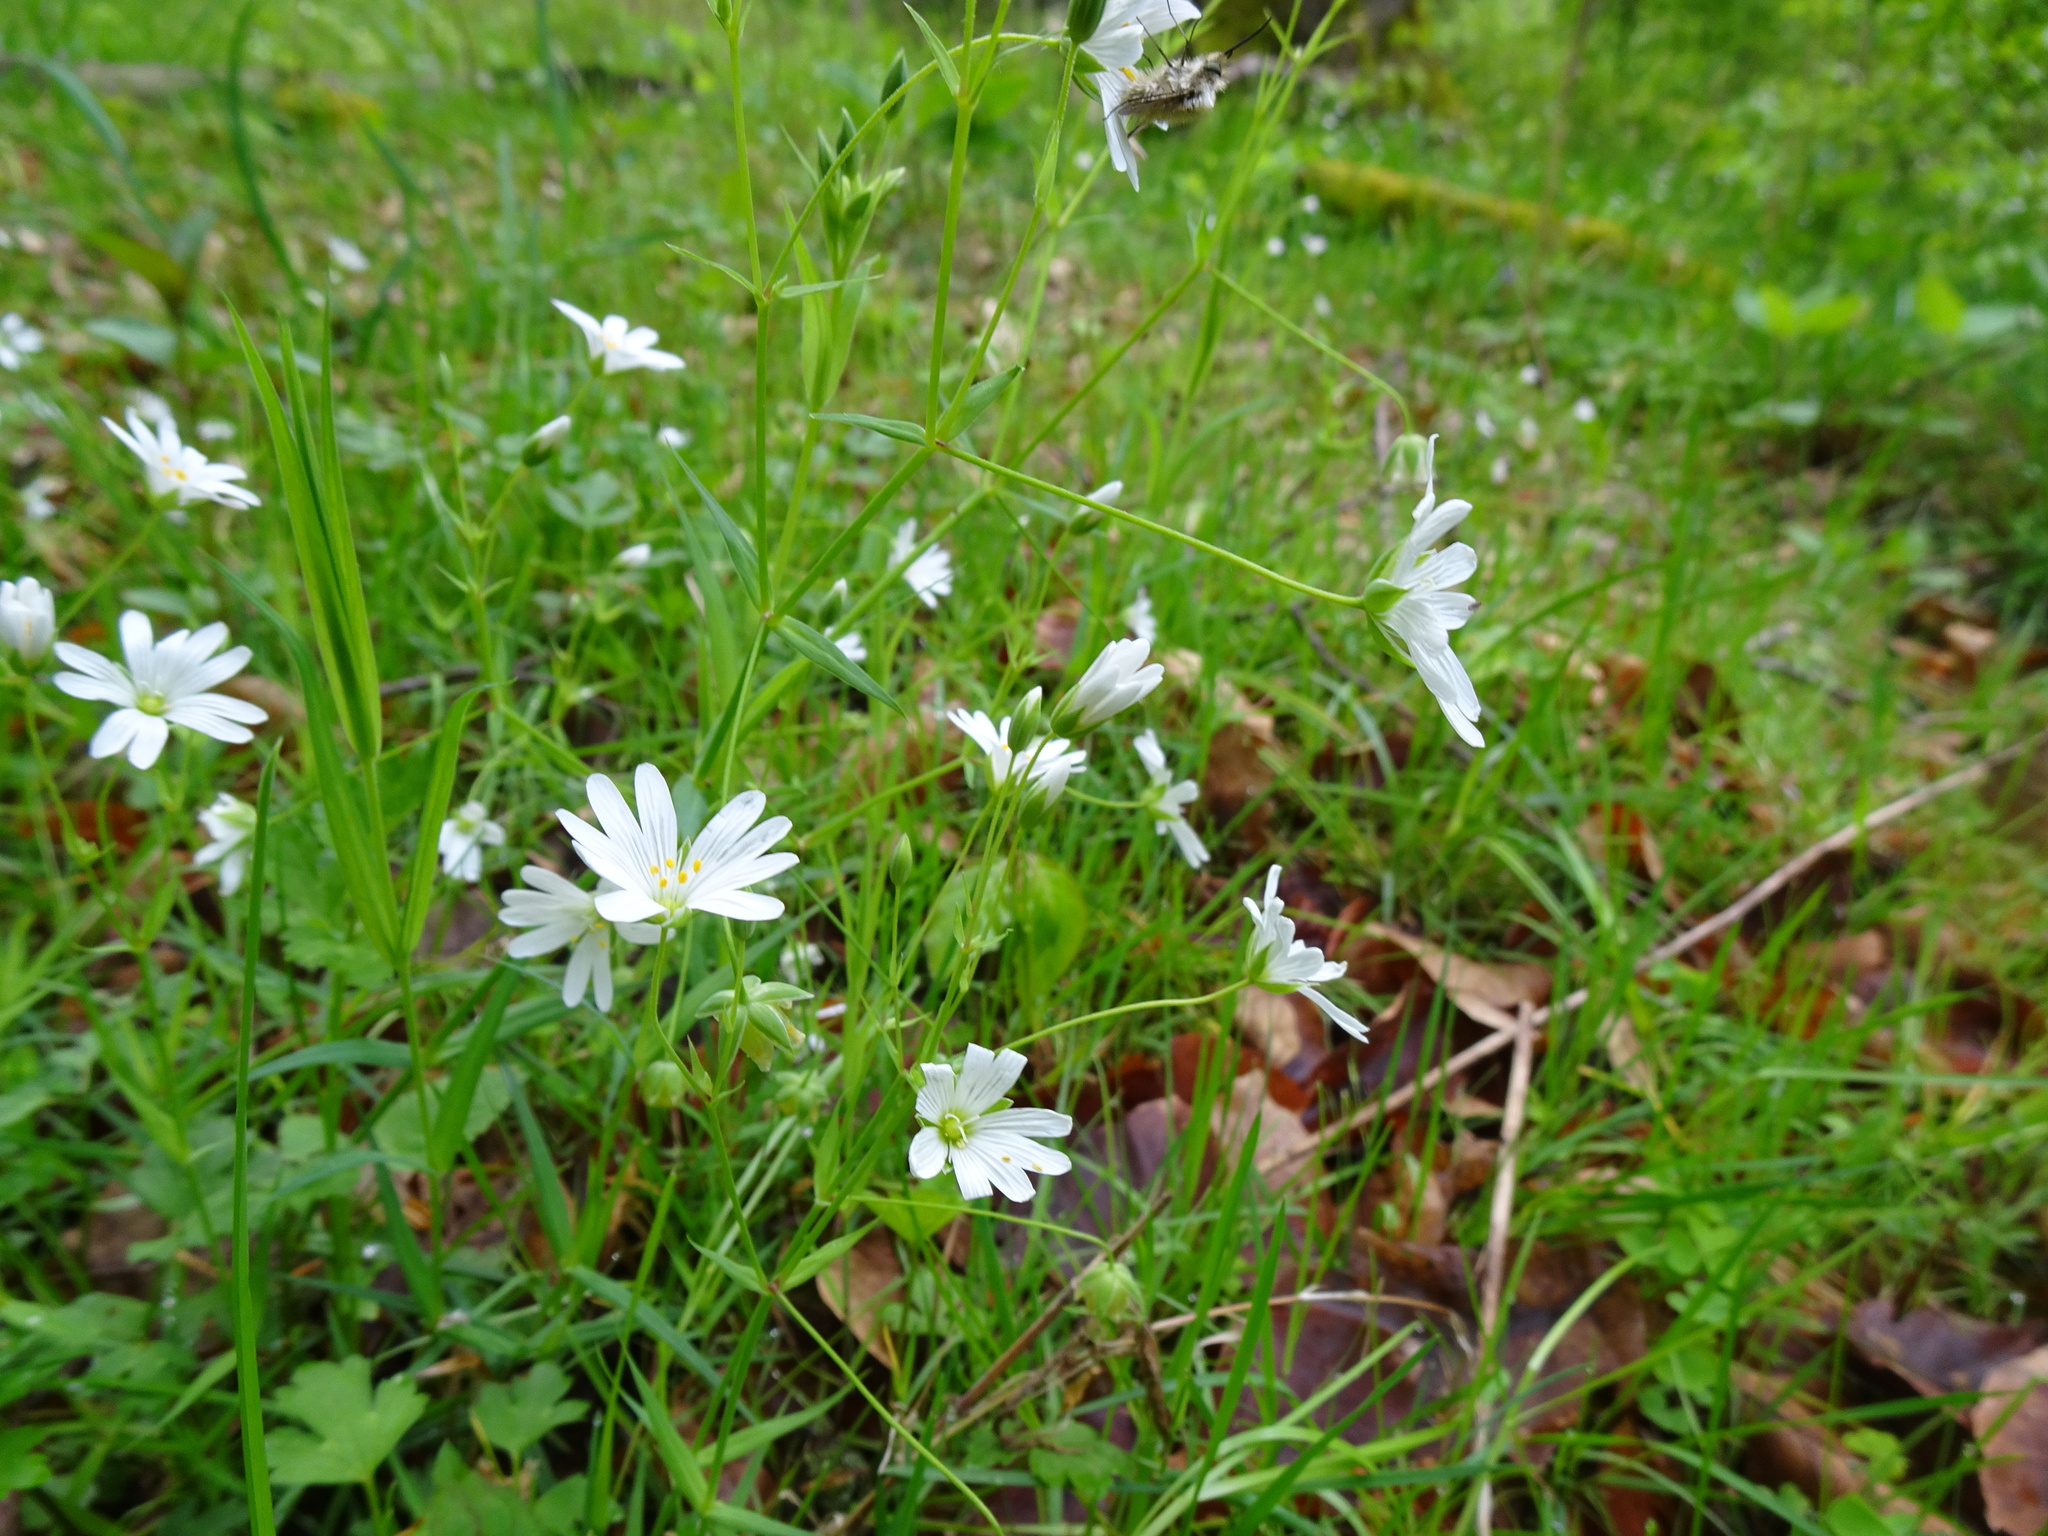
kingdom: Plantae
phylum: Tracheophyta
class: Magnoliopsida
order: Caryophyllales
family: Caryophyllaceae
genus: Rabelera
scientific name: Rabelera holostea
